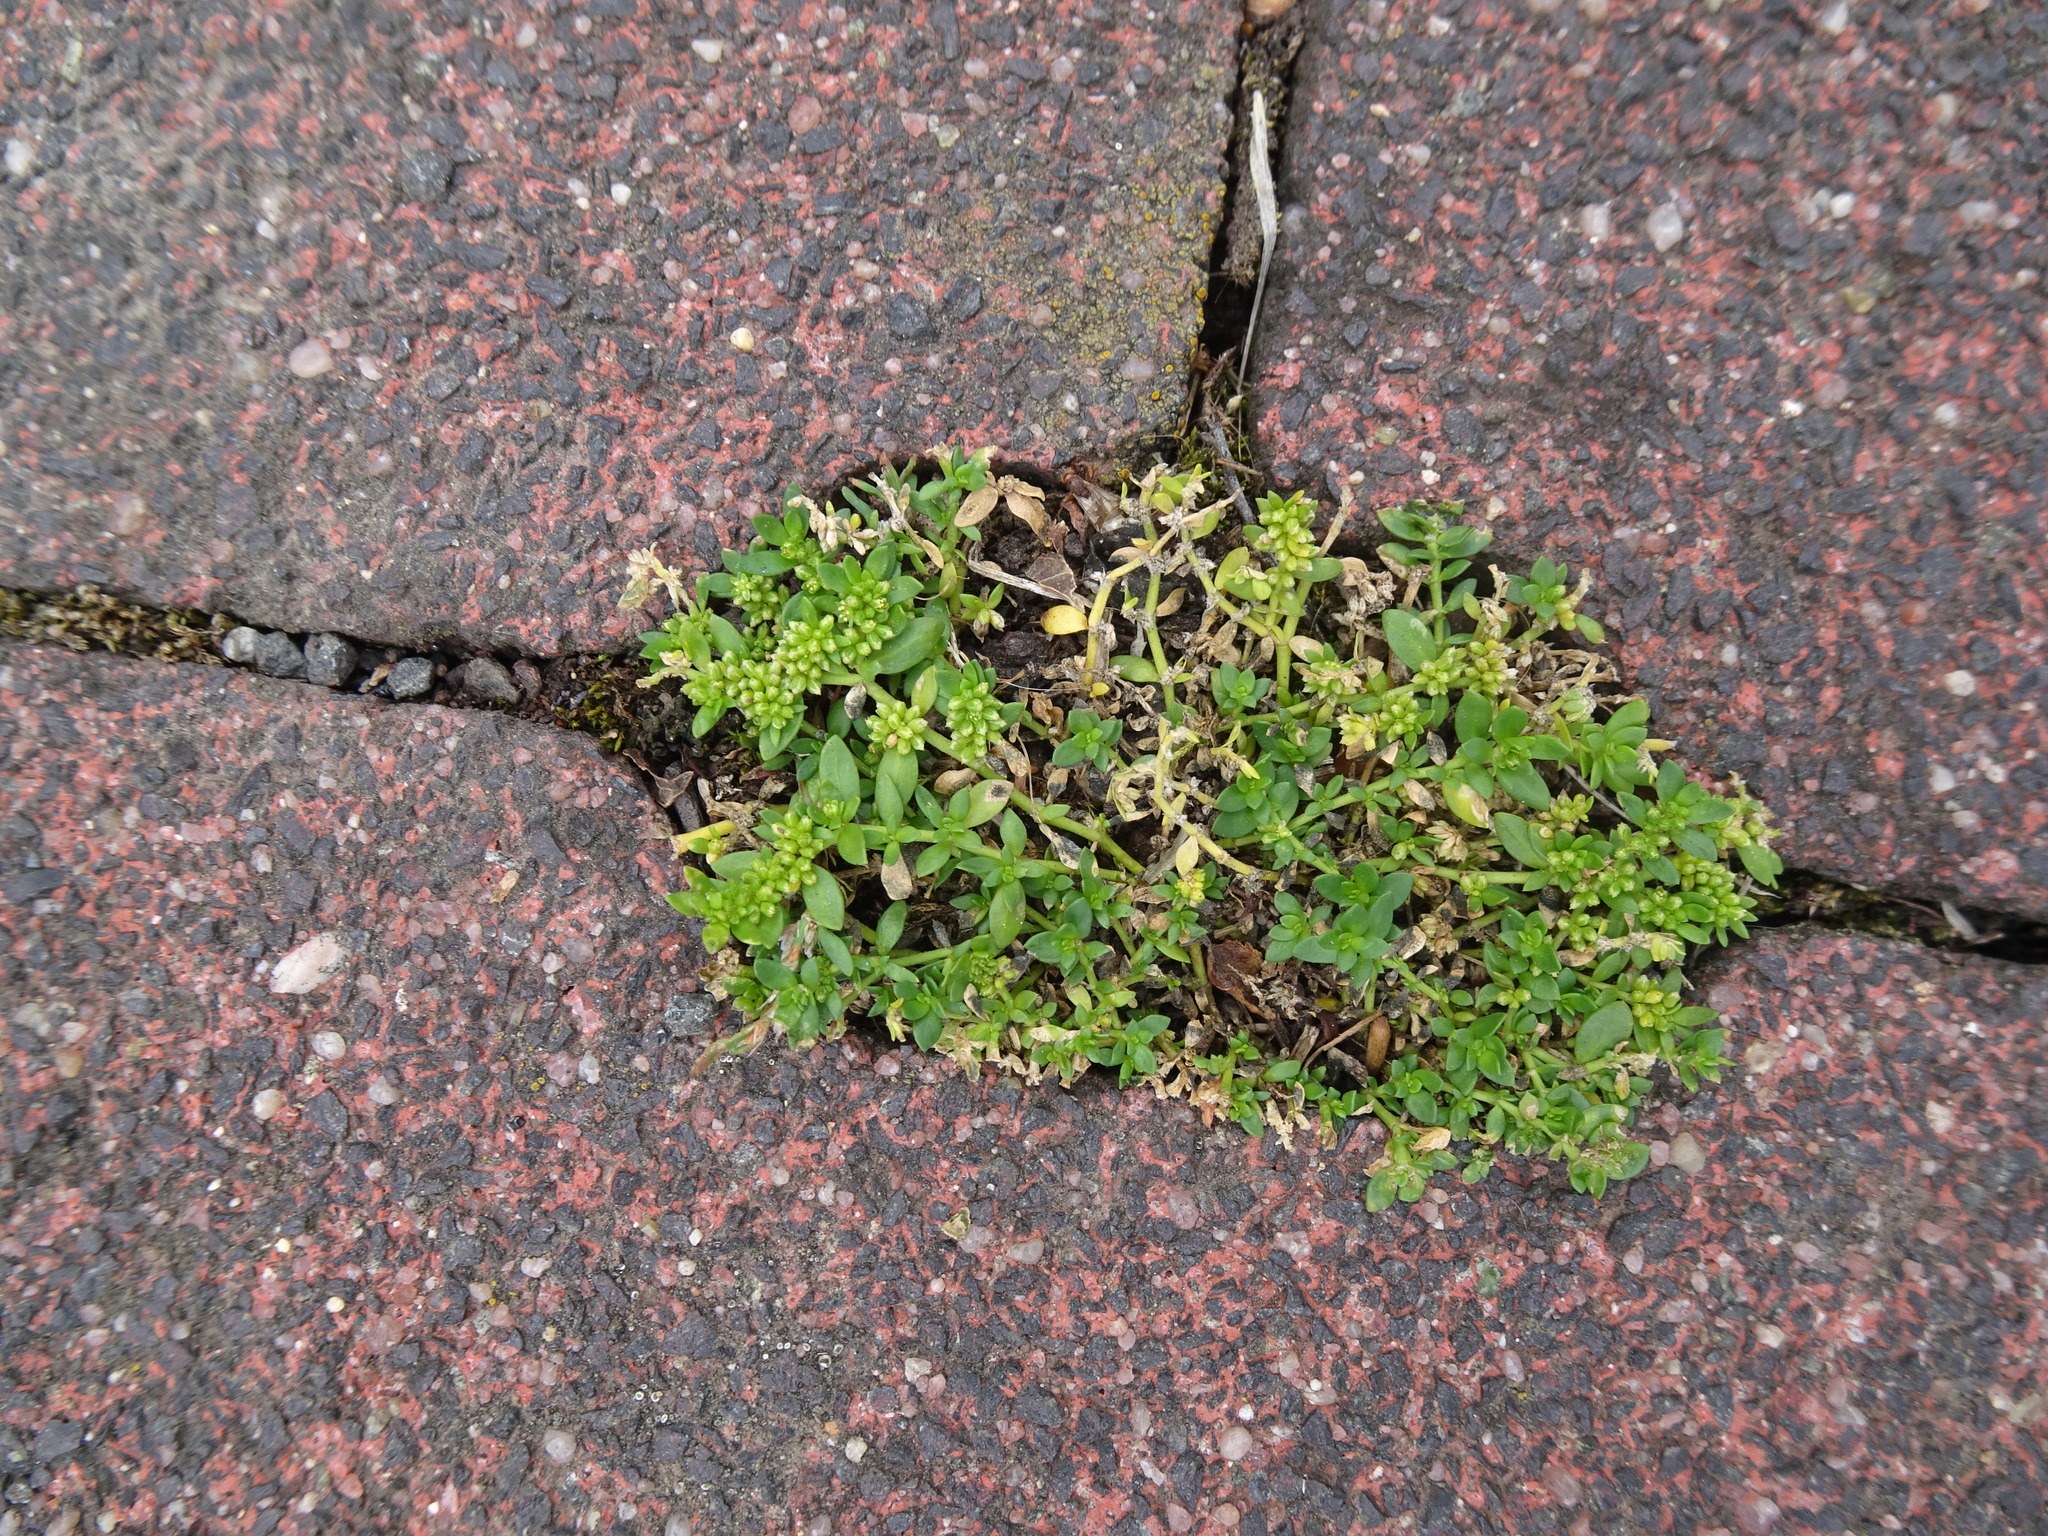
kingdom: Plantae
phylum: Tracheophyta
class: Magnoliopsida
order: Caryophyllales
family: Caryophyllaceae
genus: Herniaria
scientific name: Herniaria glabra
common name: Smooth rupturewort
